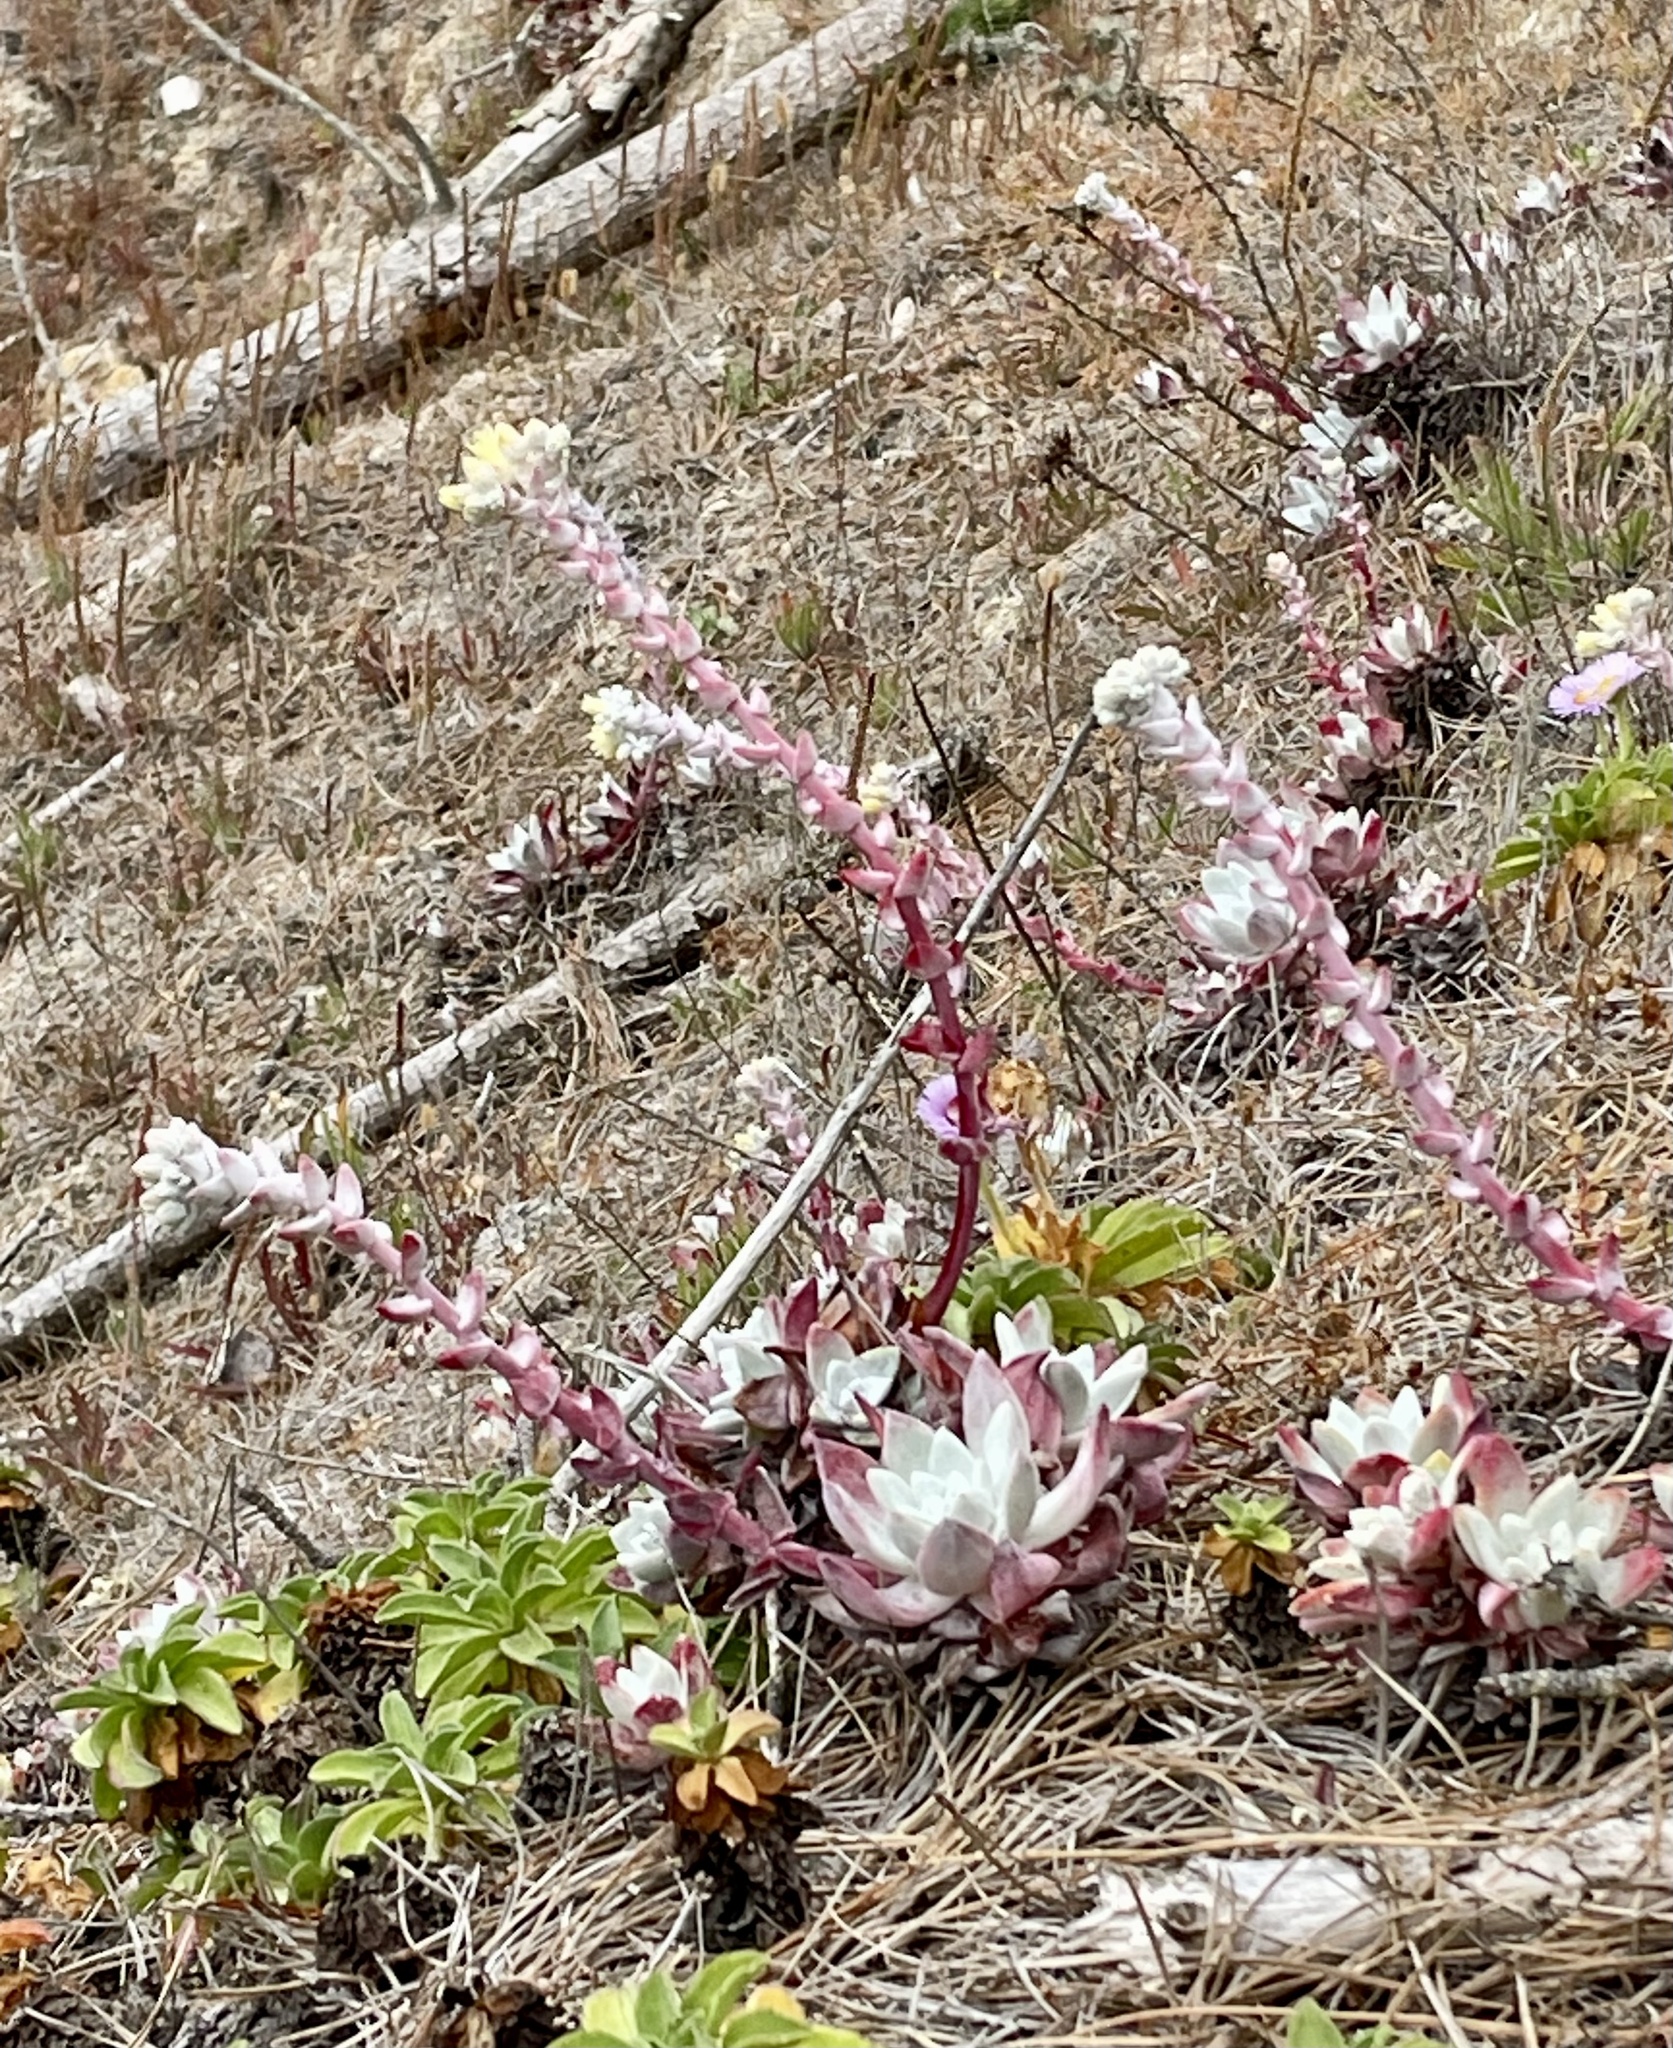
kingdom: Plantae
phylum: Tracheophyta
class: Magnoliopsida
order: Saxifragales
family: Crassulaceae
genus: Dudleya
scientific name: Dudleya farinosa
